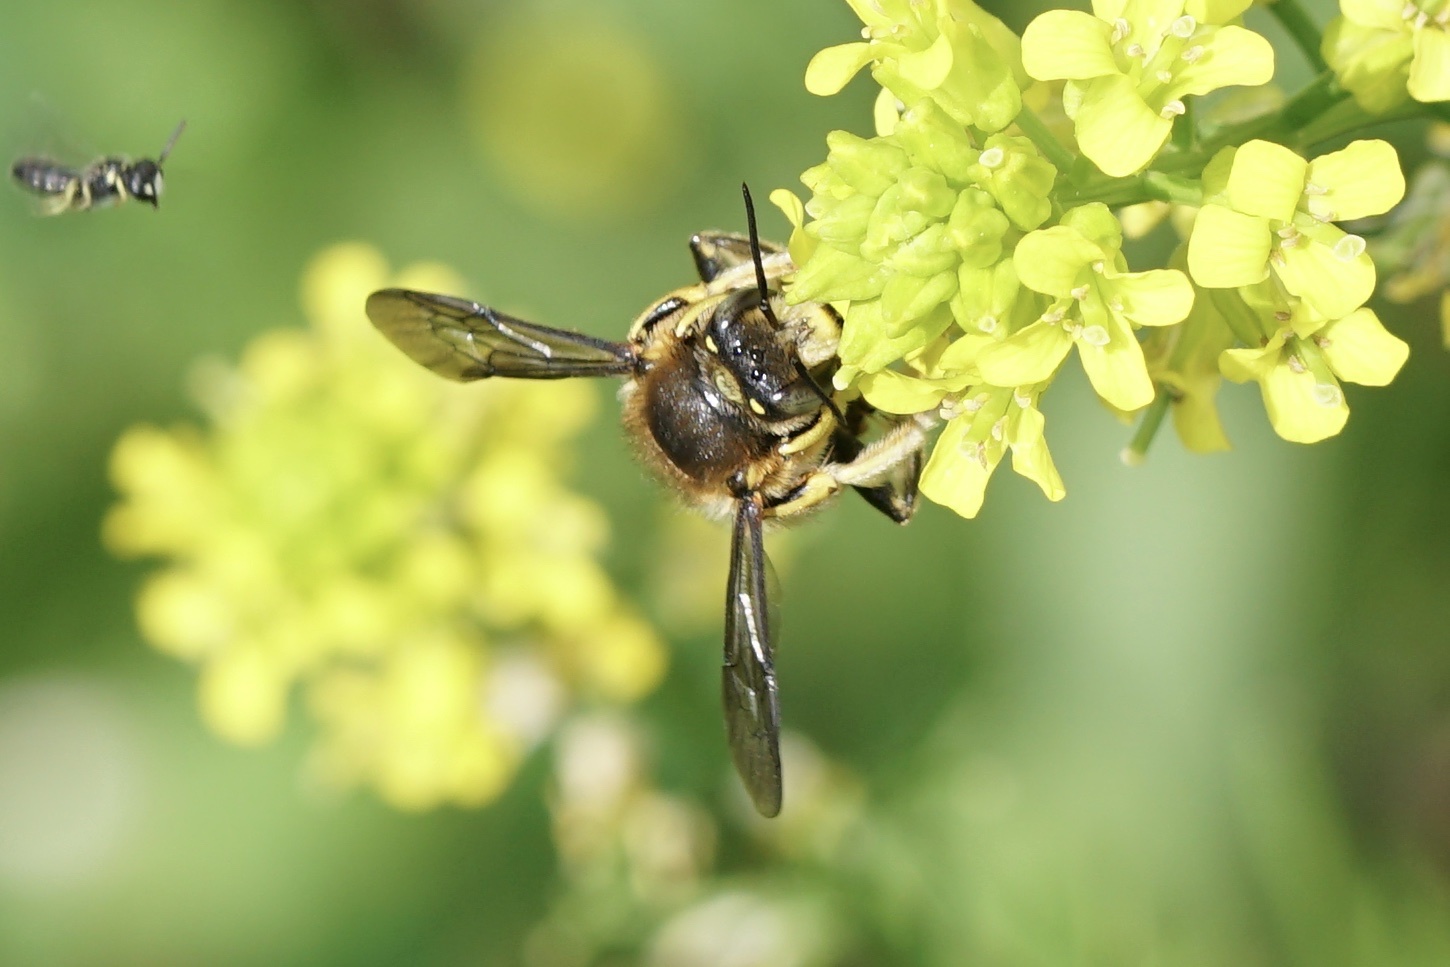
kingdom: Animalia
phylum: Arthropoda
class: Insecta
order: Hymenoptera
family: Megachilidae
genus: Anthidium
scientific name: Anthidium manicatum
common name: Wool carder bee
